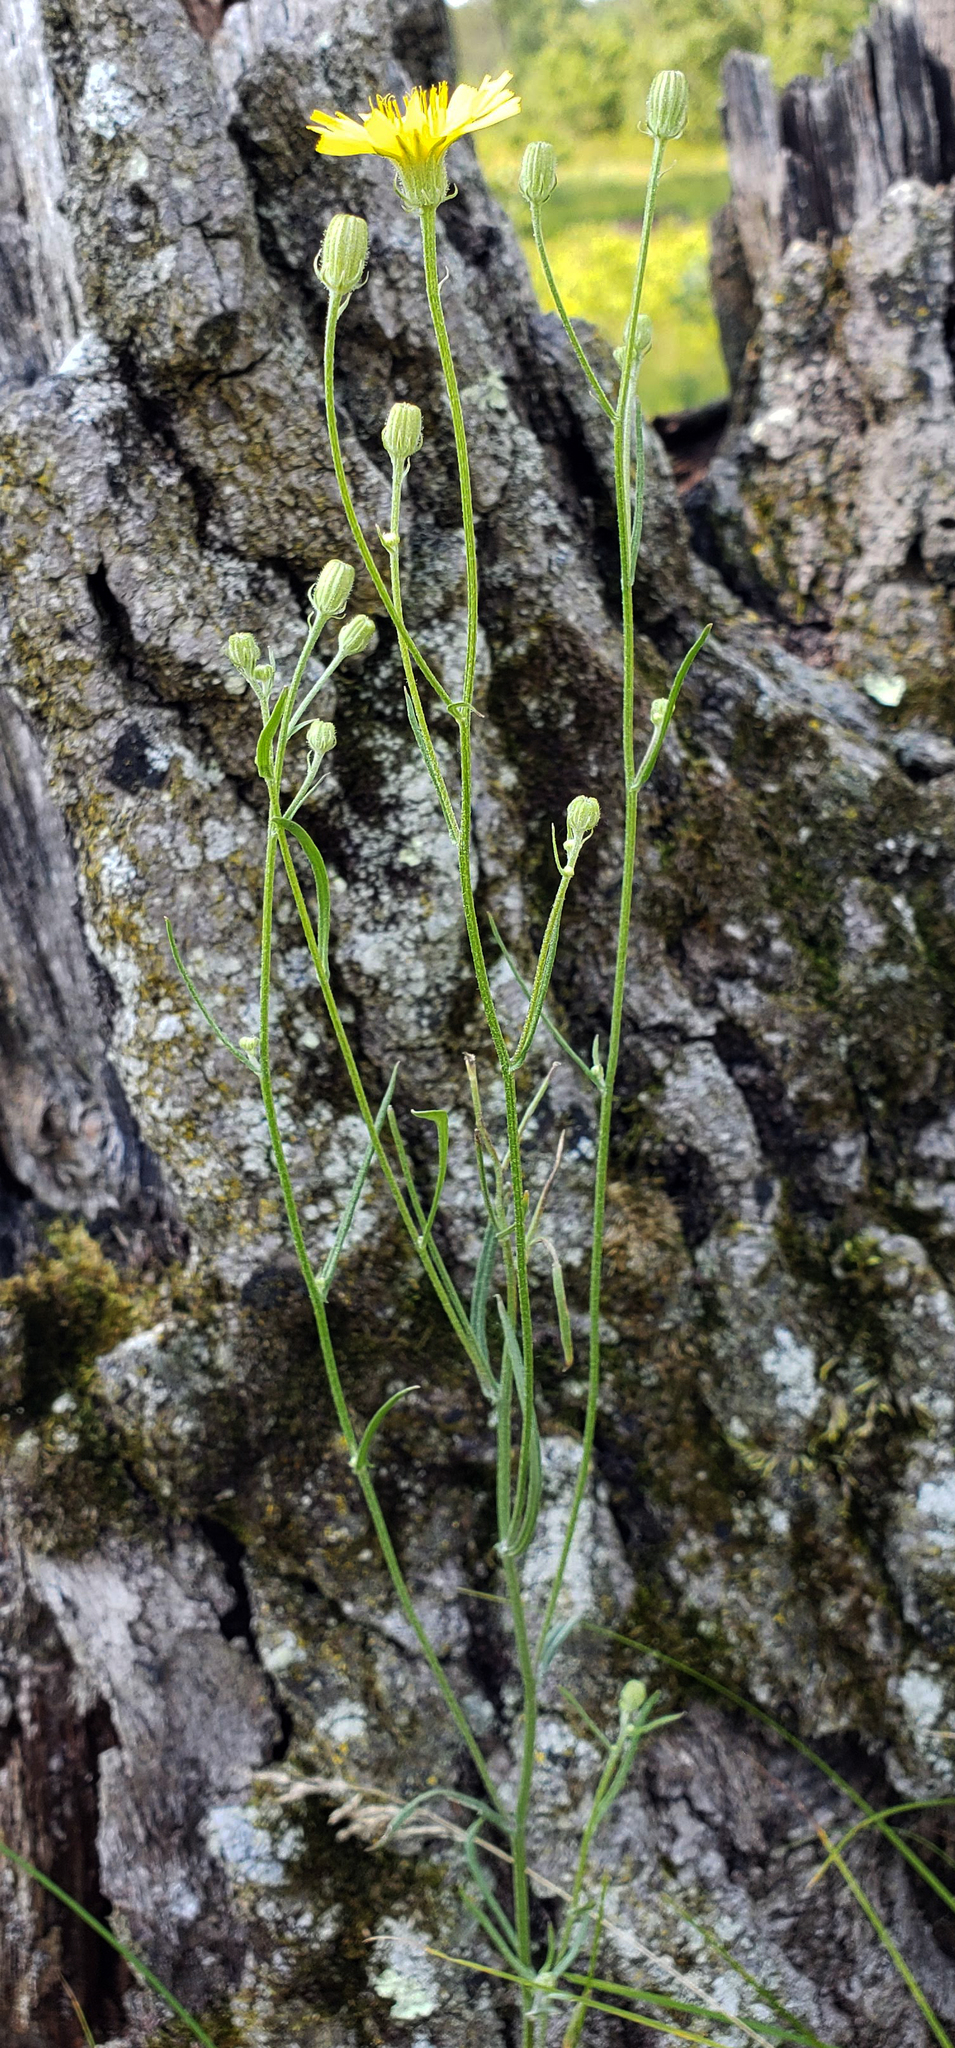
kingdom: Plantae
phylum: Tracheophyta
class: Magnoliopsida
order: Asterales
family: Asteraceae
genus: Crepis
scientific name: Crepis tectorum
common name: Narrow-leaved hawk's-beard
